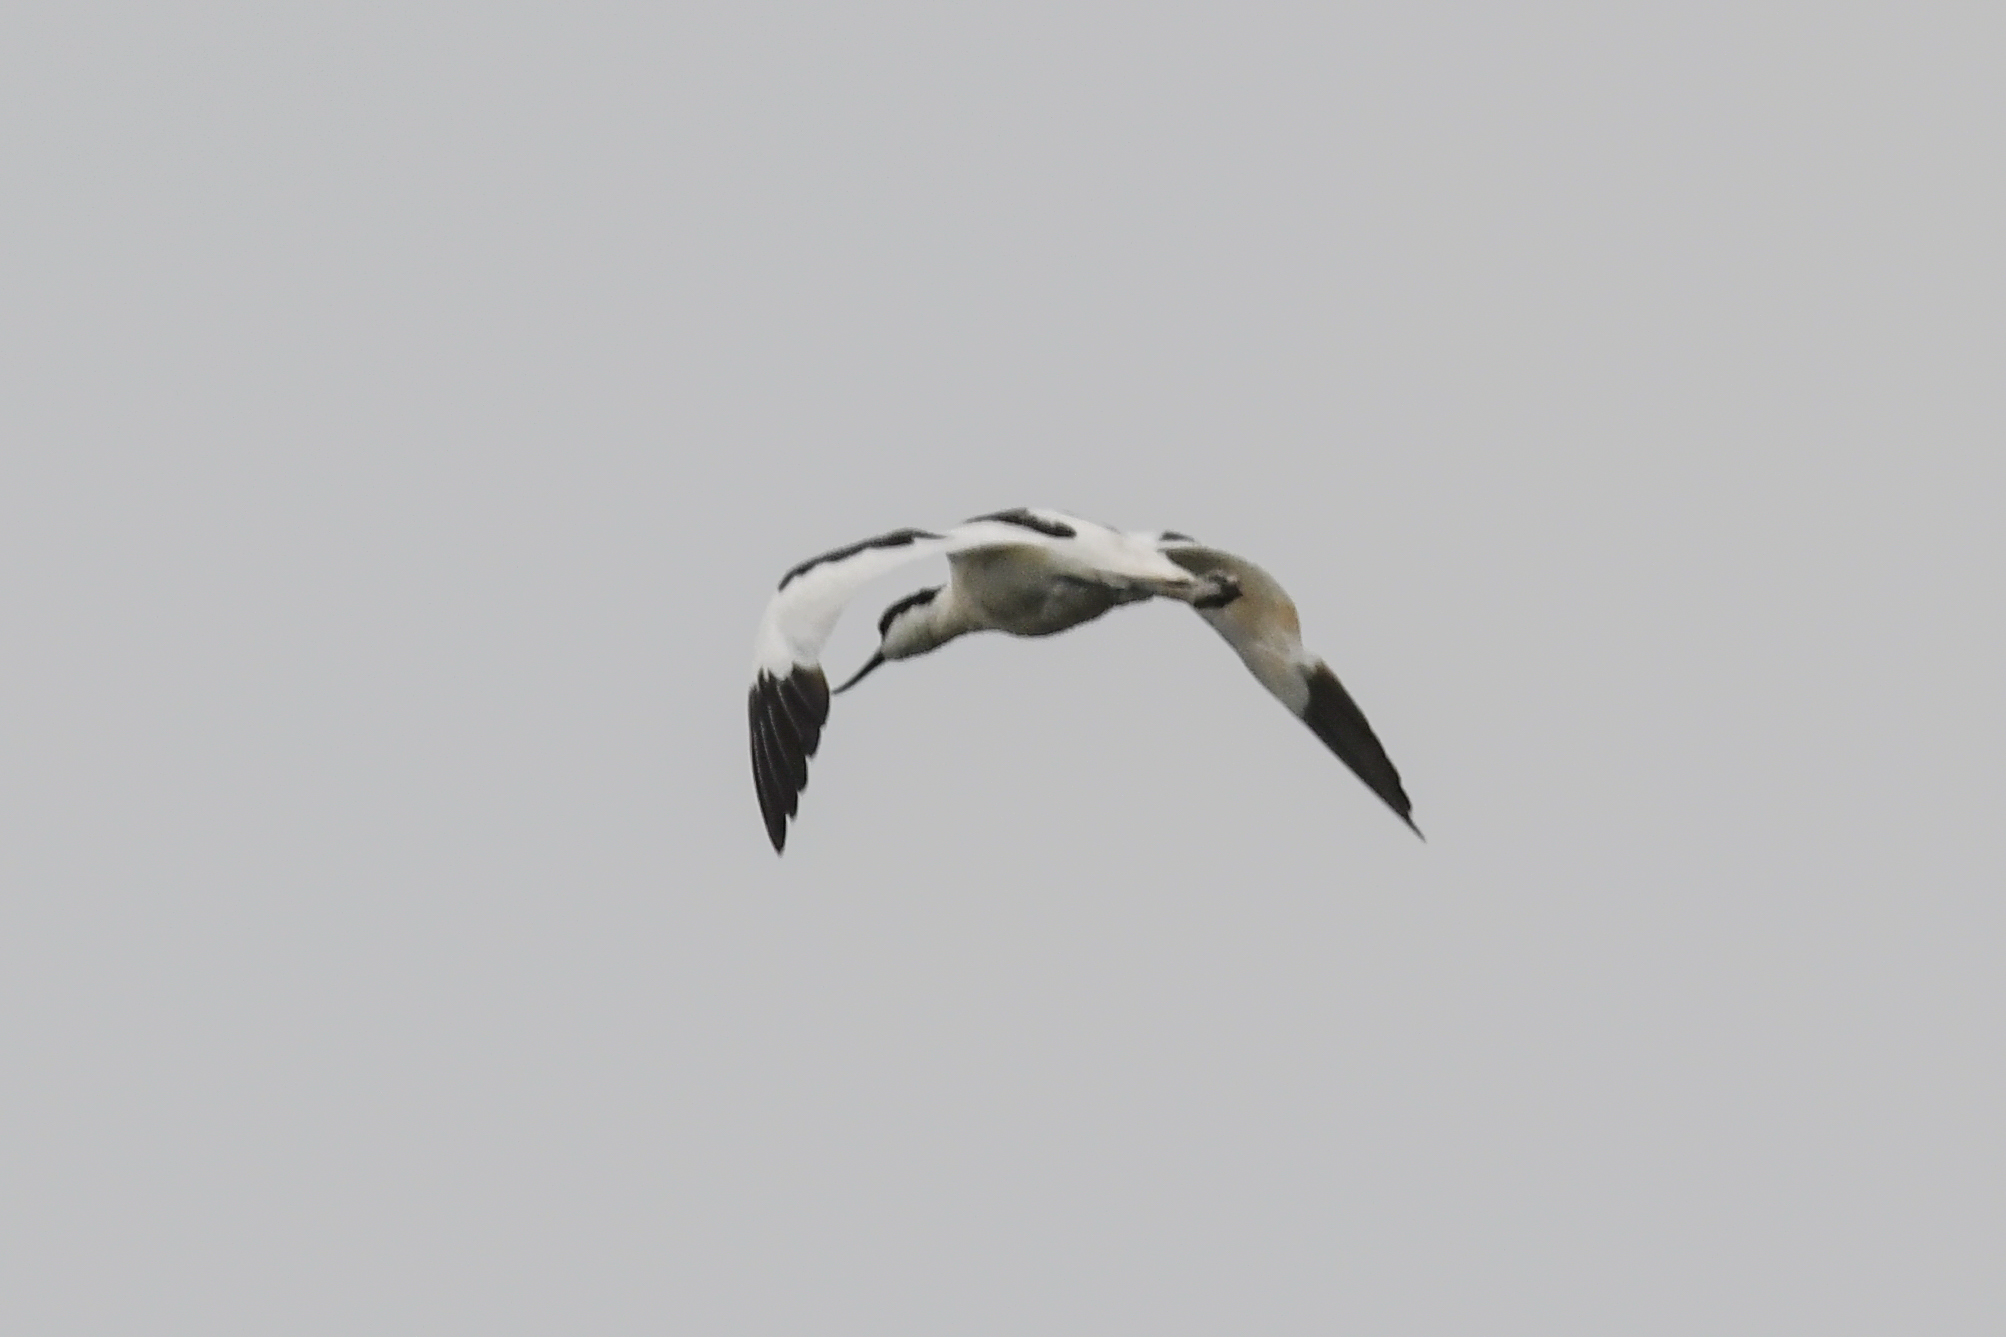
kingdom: Animalia
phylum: Chordata
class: Aves
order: Charadriiformes
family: Recurvirostridae
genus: Recurvirostra
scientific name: Recurvirostra avosetta
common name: Pied avocet
